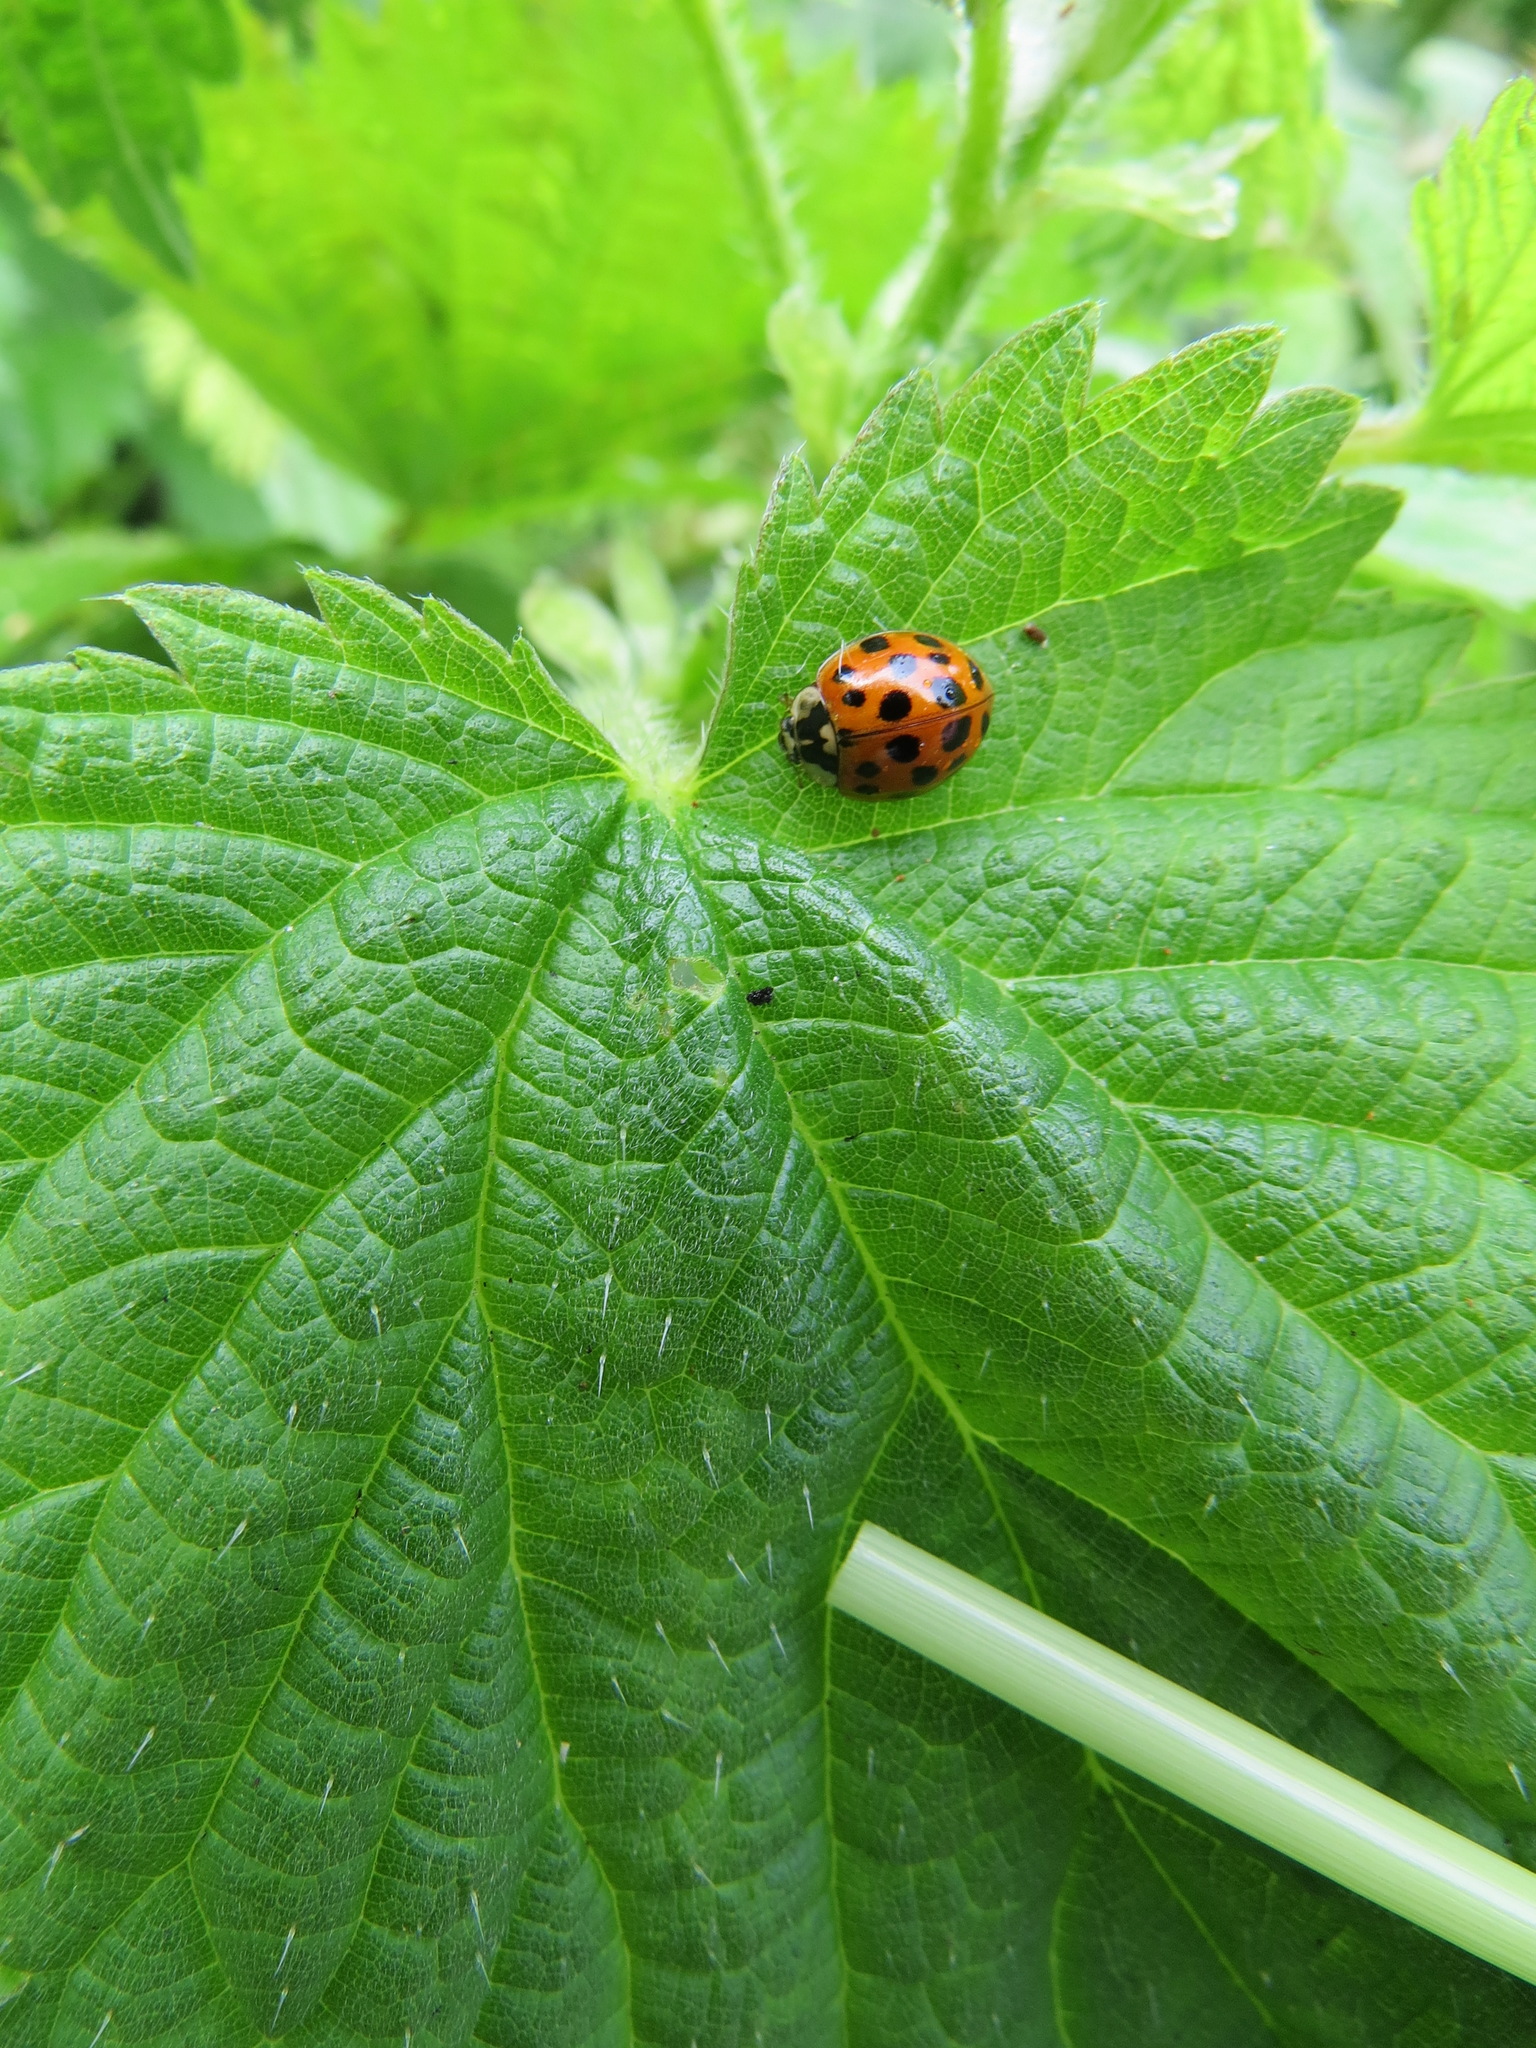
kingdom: Animalia
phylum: Arthropoda
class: Insecta
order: Coleoptera
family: Coccinellidae
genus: Harmonia
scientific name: Harmonia axyridis
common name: Harlequin ladybird
